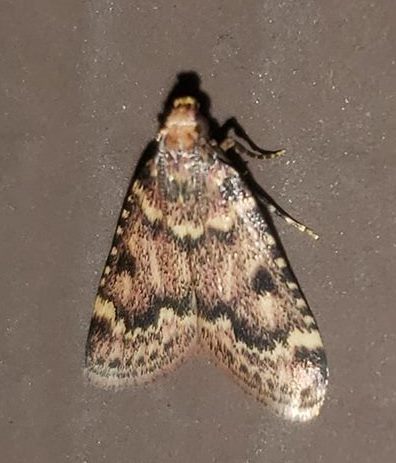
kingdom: Animalia
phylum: Arthropoda
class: Insecta
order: Lepidoptera
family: Pyralidae
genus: Aglossa
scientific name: Aglossa disciferalis
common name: Pink-masked pyralid moth
